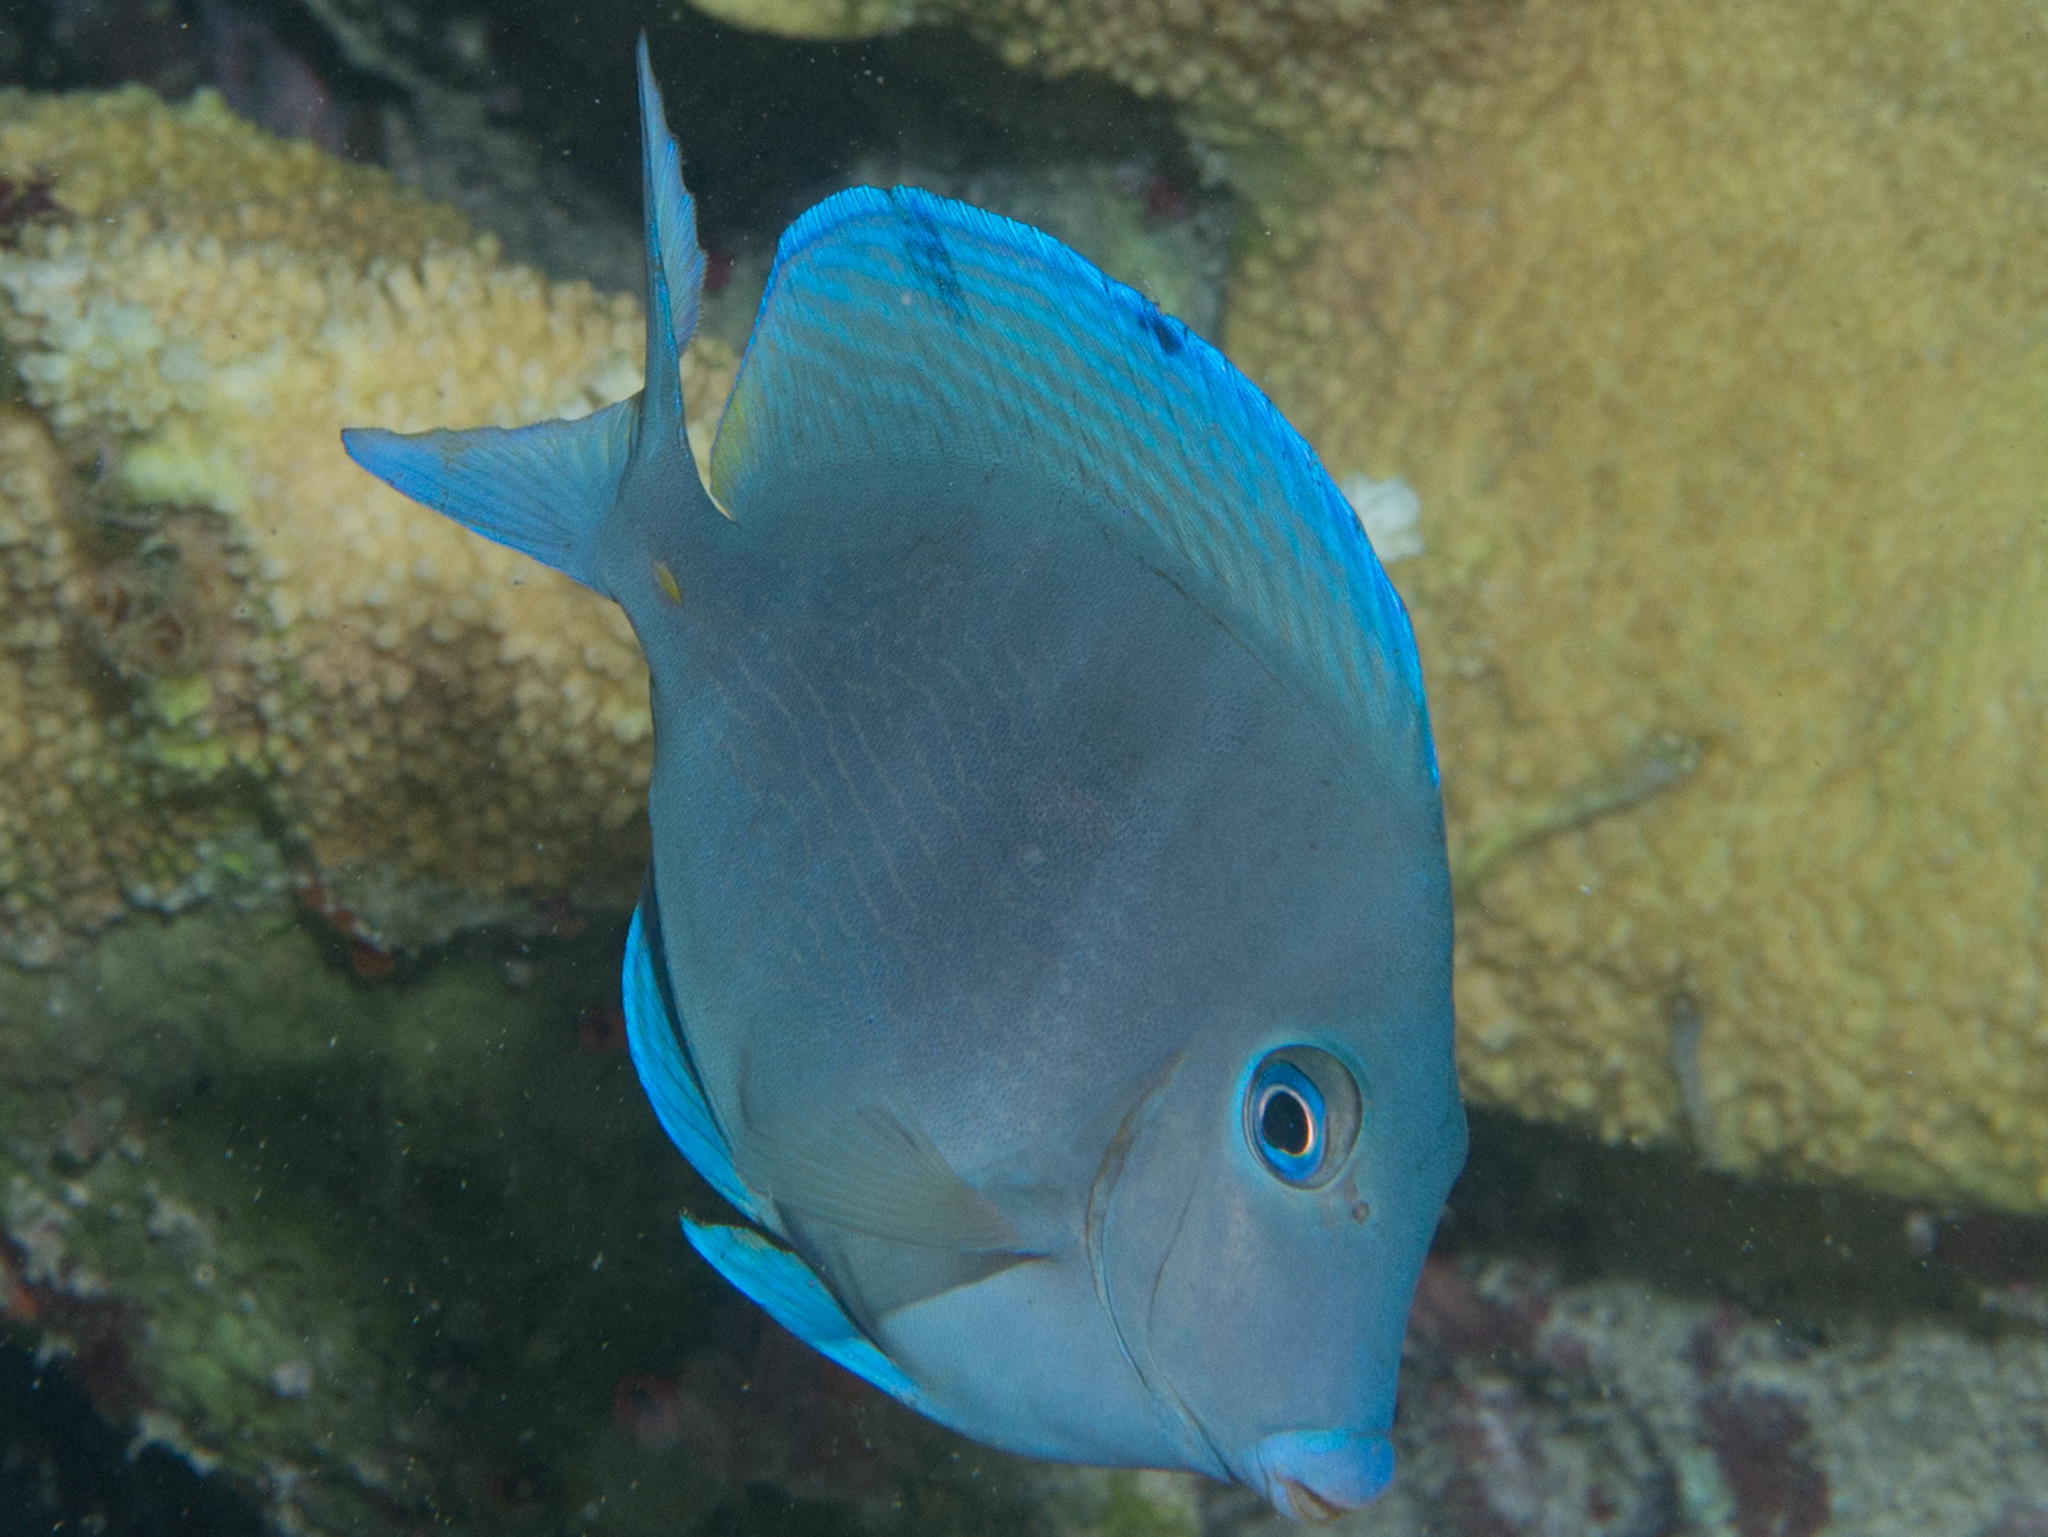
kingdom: Animalia
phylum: Chordata
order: Perciformes
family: Acanthuridae
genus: Acanthurus
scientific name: Acanthurus coeruleus
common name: Blue tang
